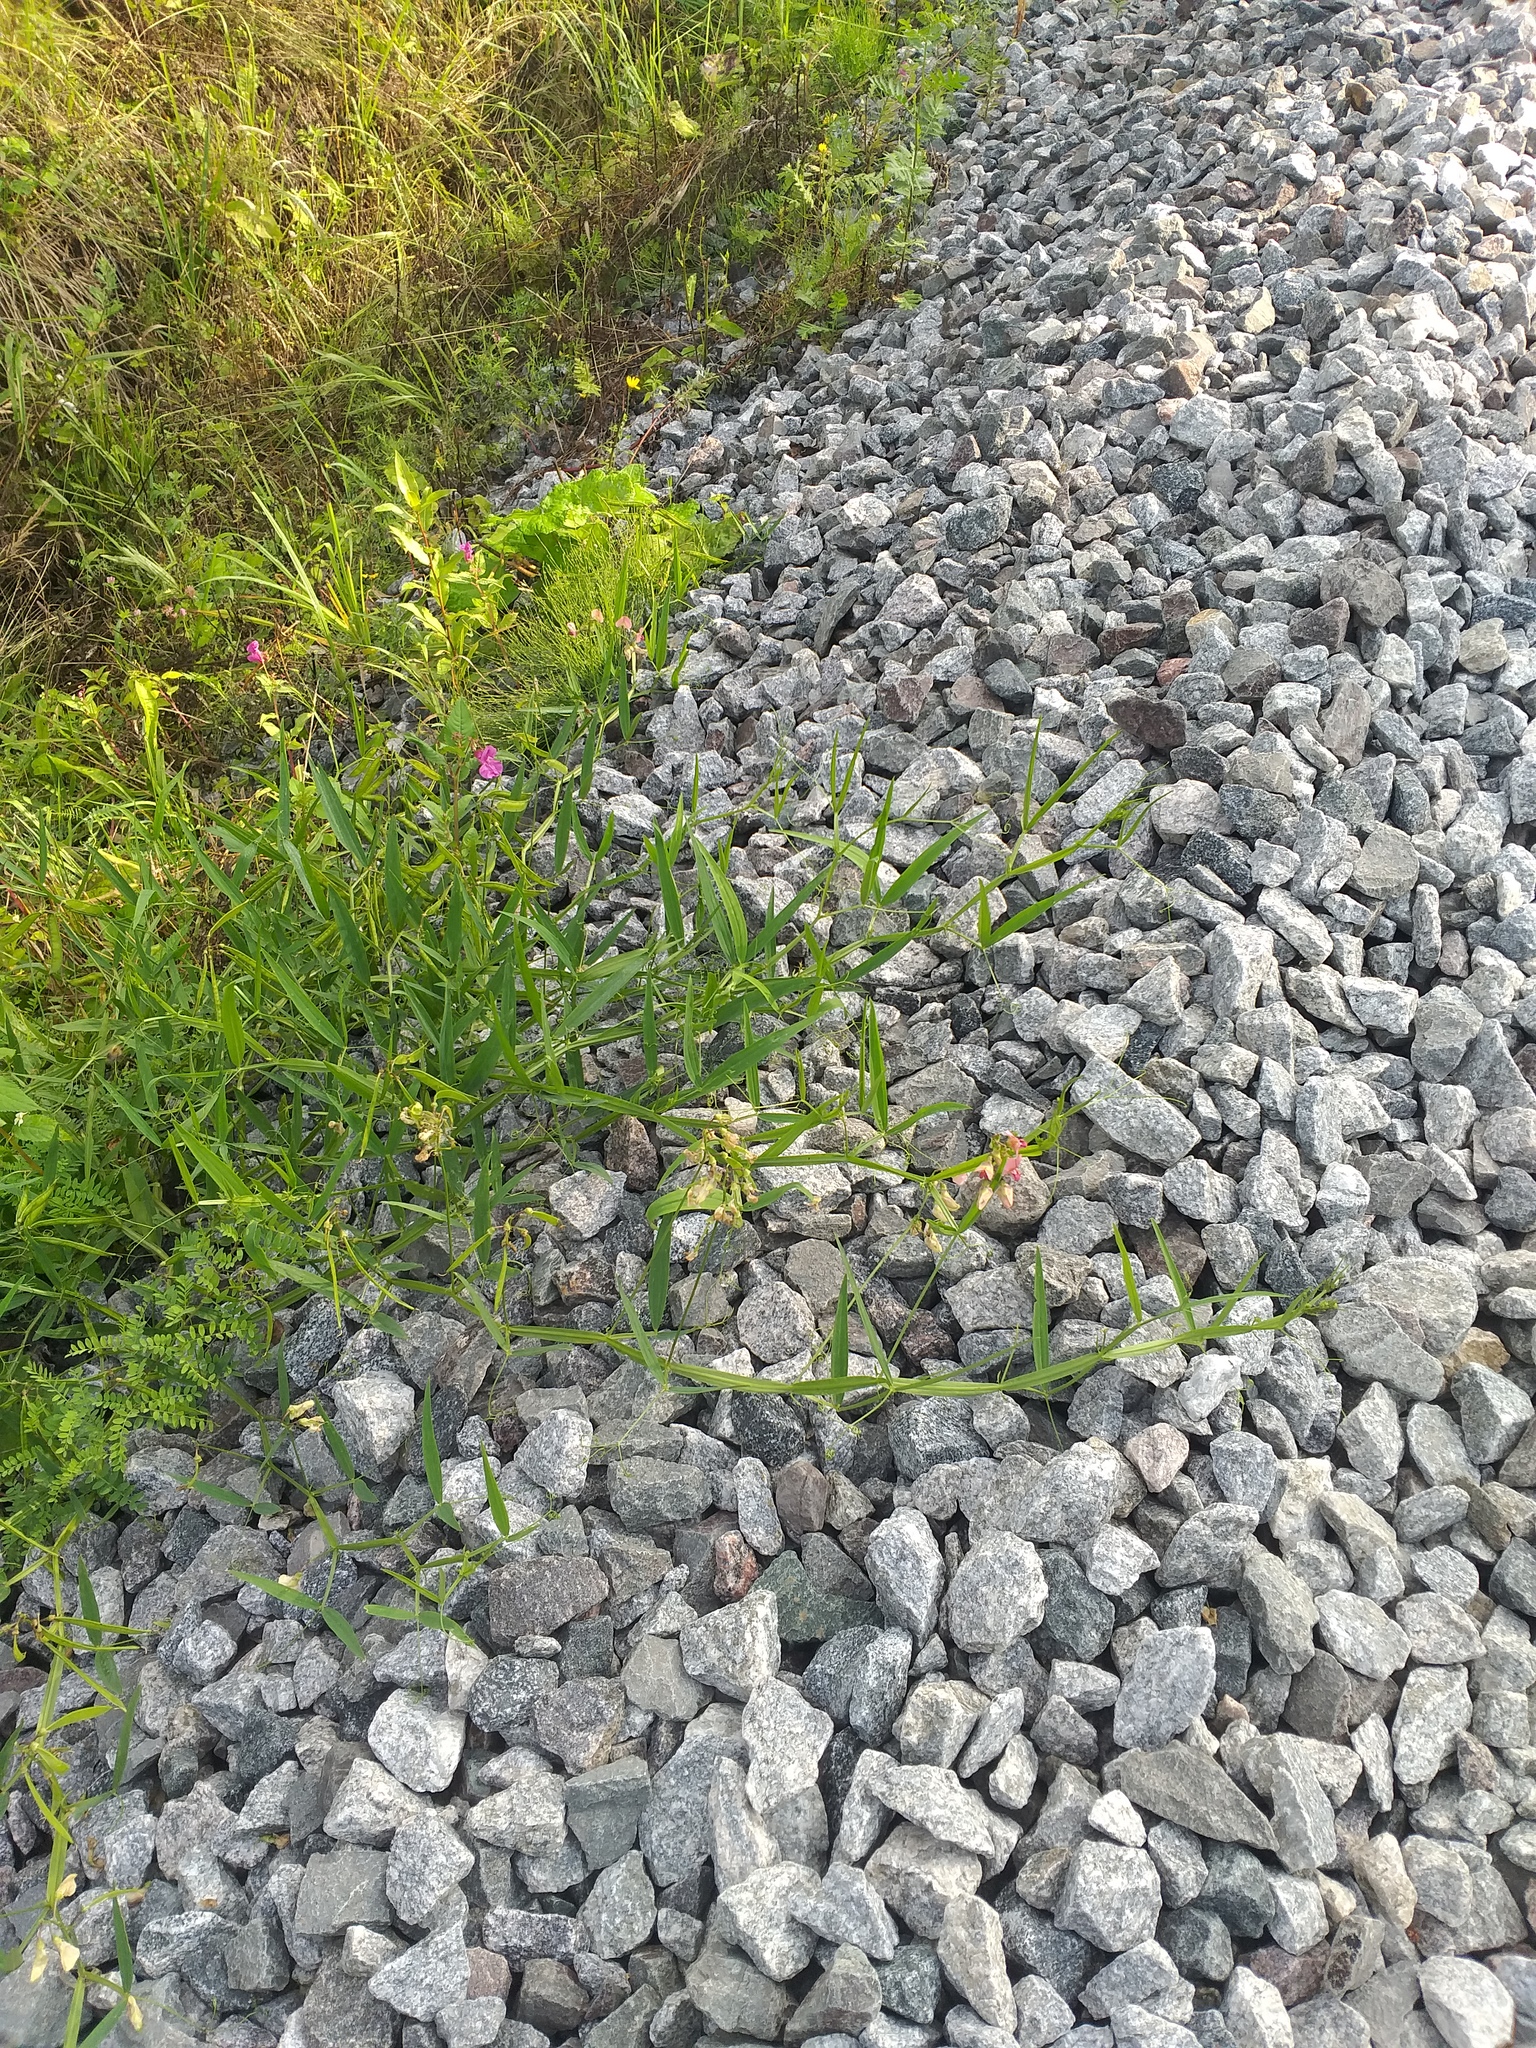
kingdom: Plantae
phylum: Tracheophyta
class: Magnoliopsida
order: Fabales
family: Fabaceae
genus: Lathyrus
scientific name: Lathyrus sylvestris
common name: Flat pea
